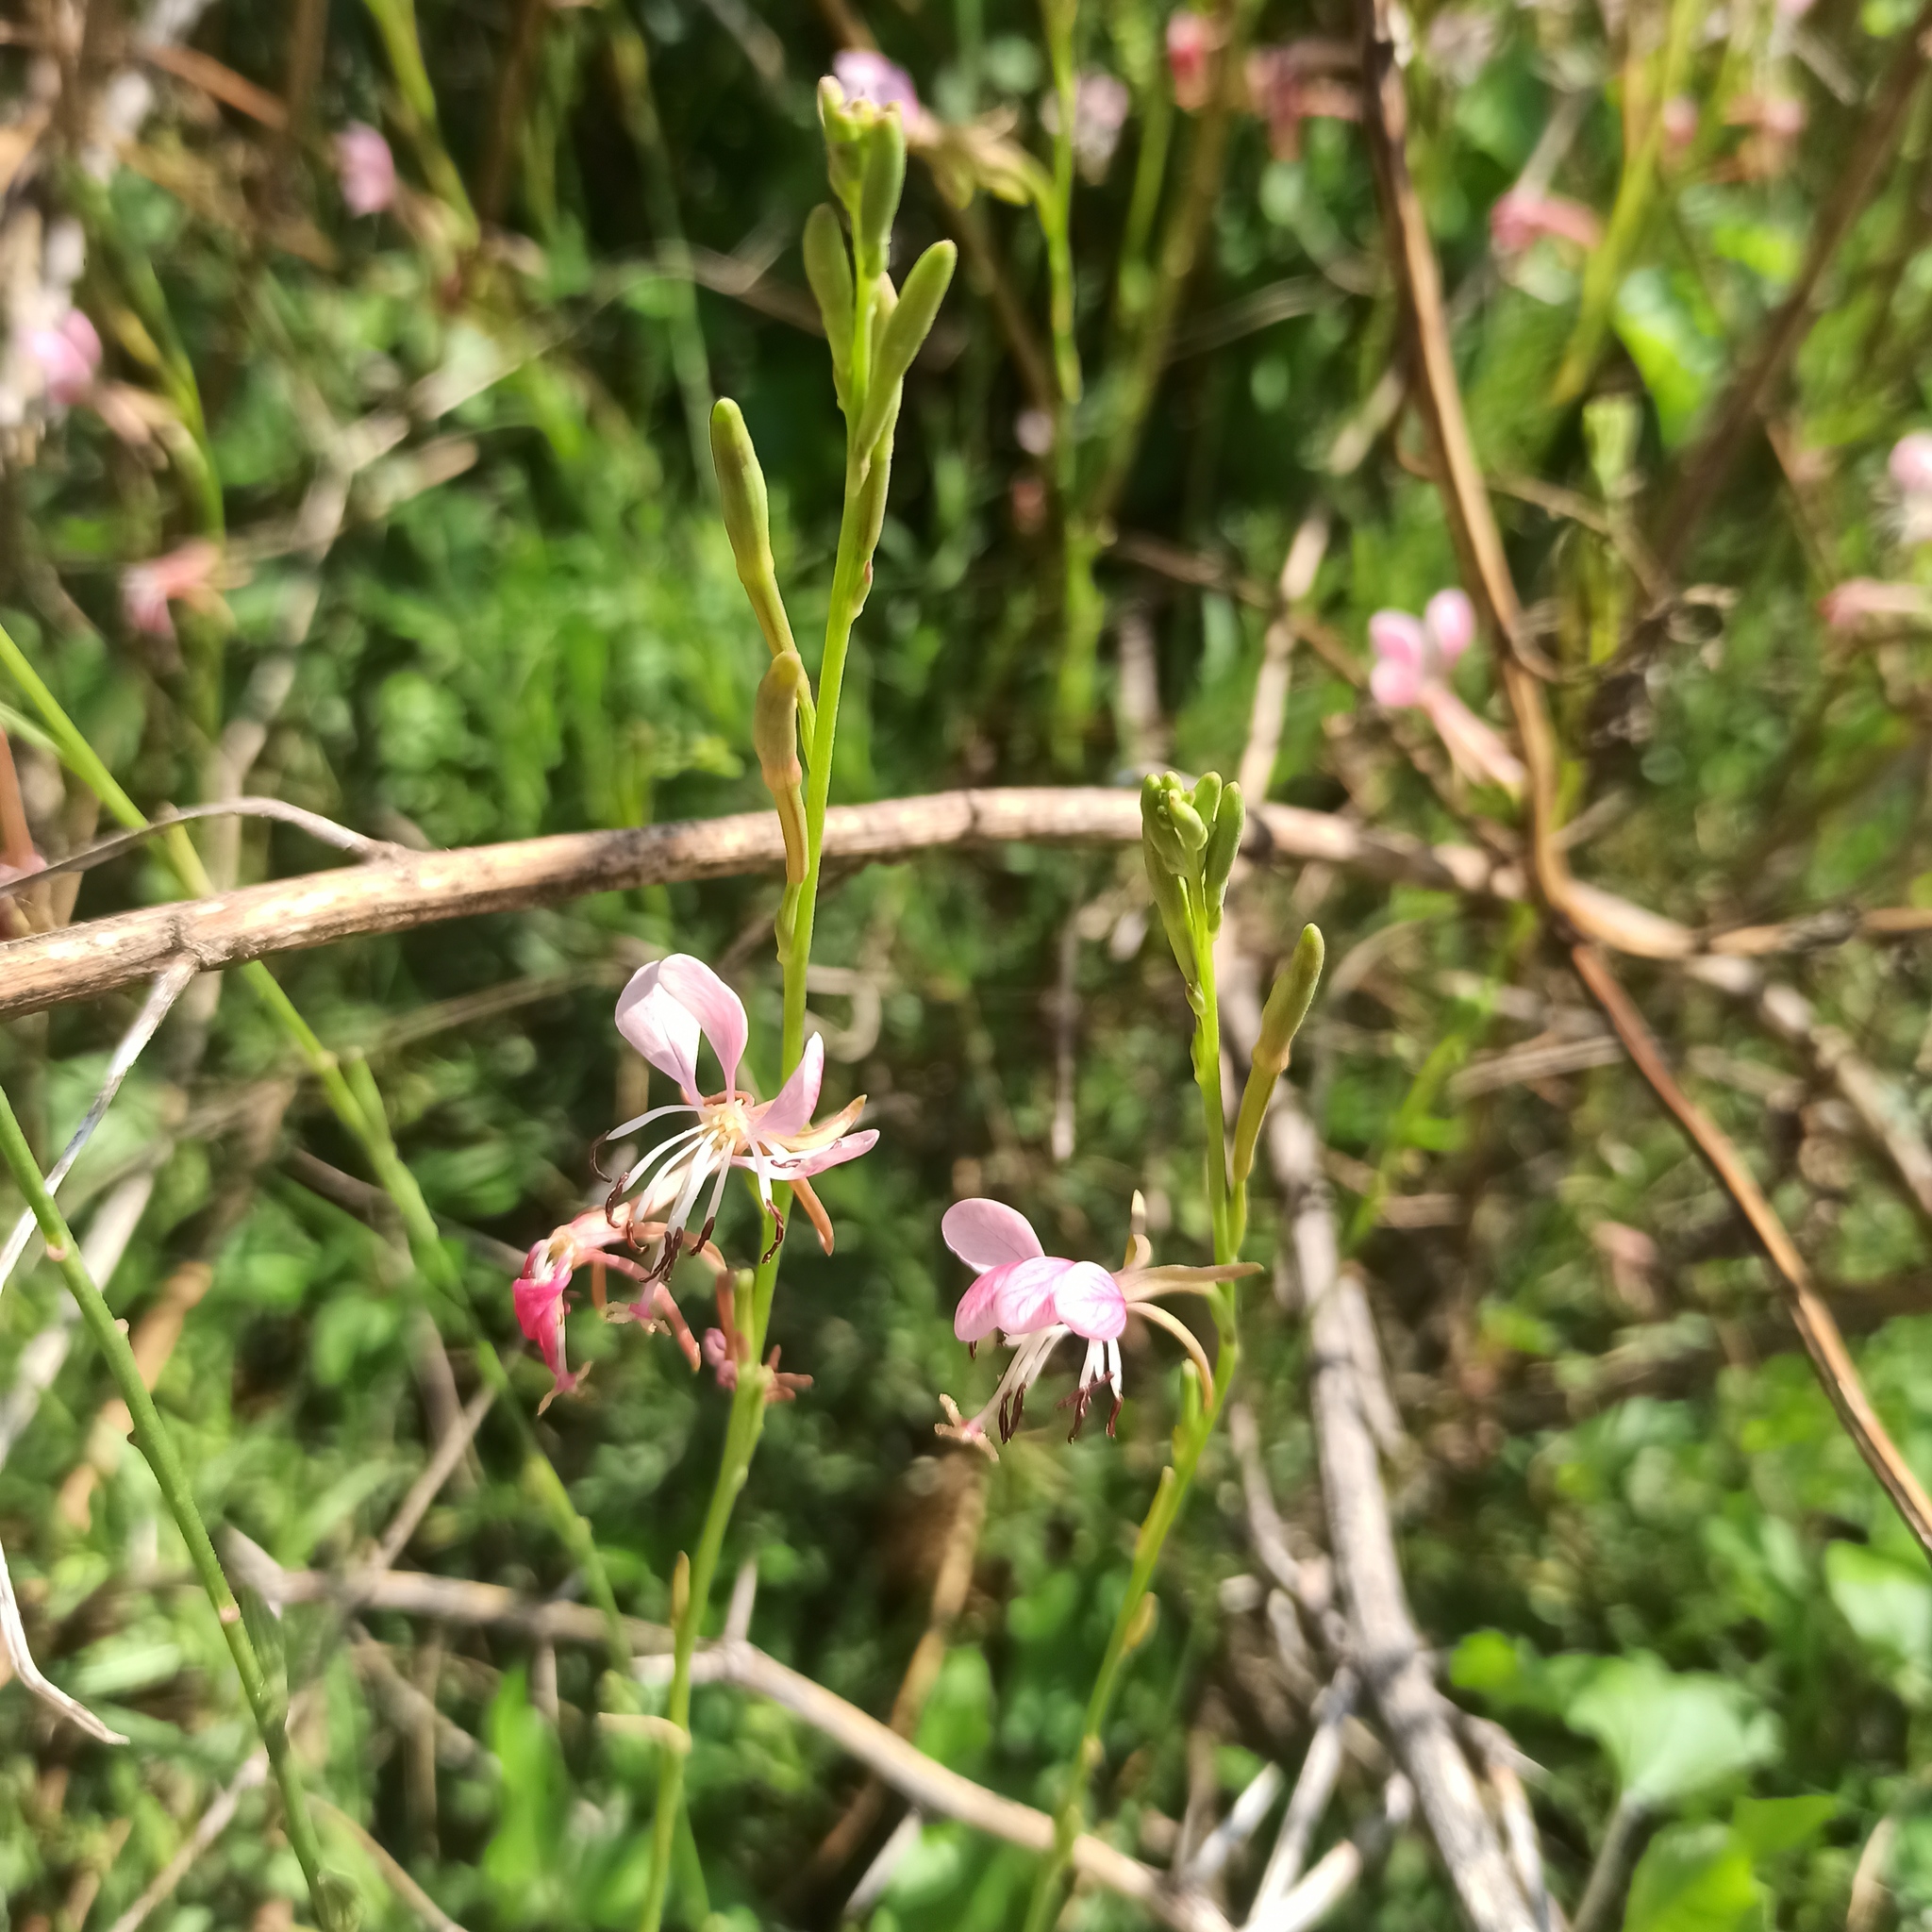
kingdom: Plantae
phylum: Tracheophyta
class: Magnoliopsida
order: Myrtales
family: Onagraceae
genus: Oenothera
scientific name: Oenothera suffrutescens
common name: Scarlet beeblossom
